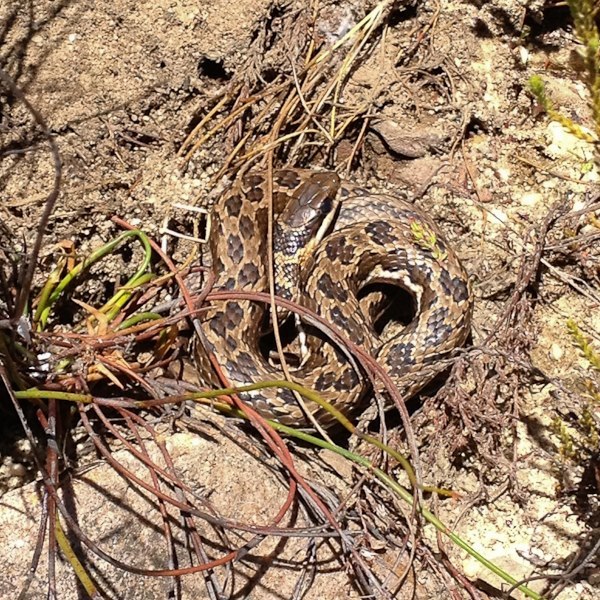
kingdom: Animalia
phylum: Chordata
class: Squamata
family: Psammophiidae
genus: Psammophylax
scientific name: Psammophylax rhombeatus
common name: Rhombic skaapsteker
